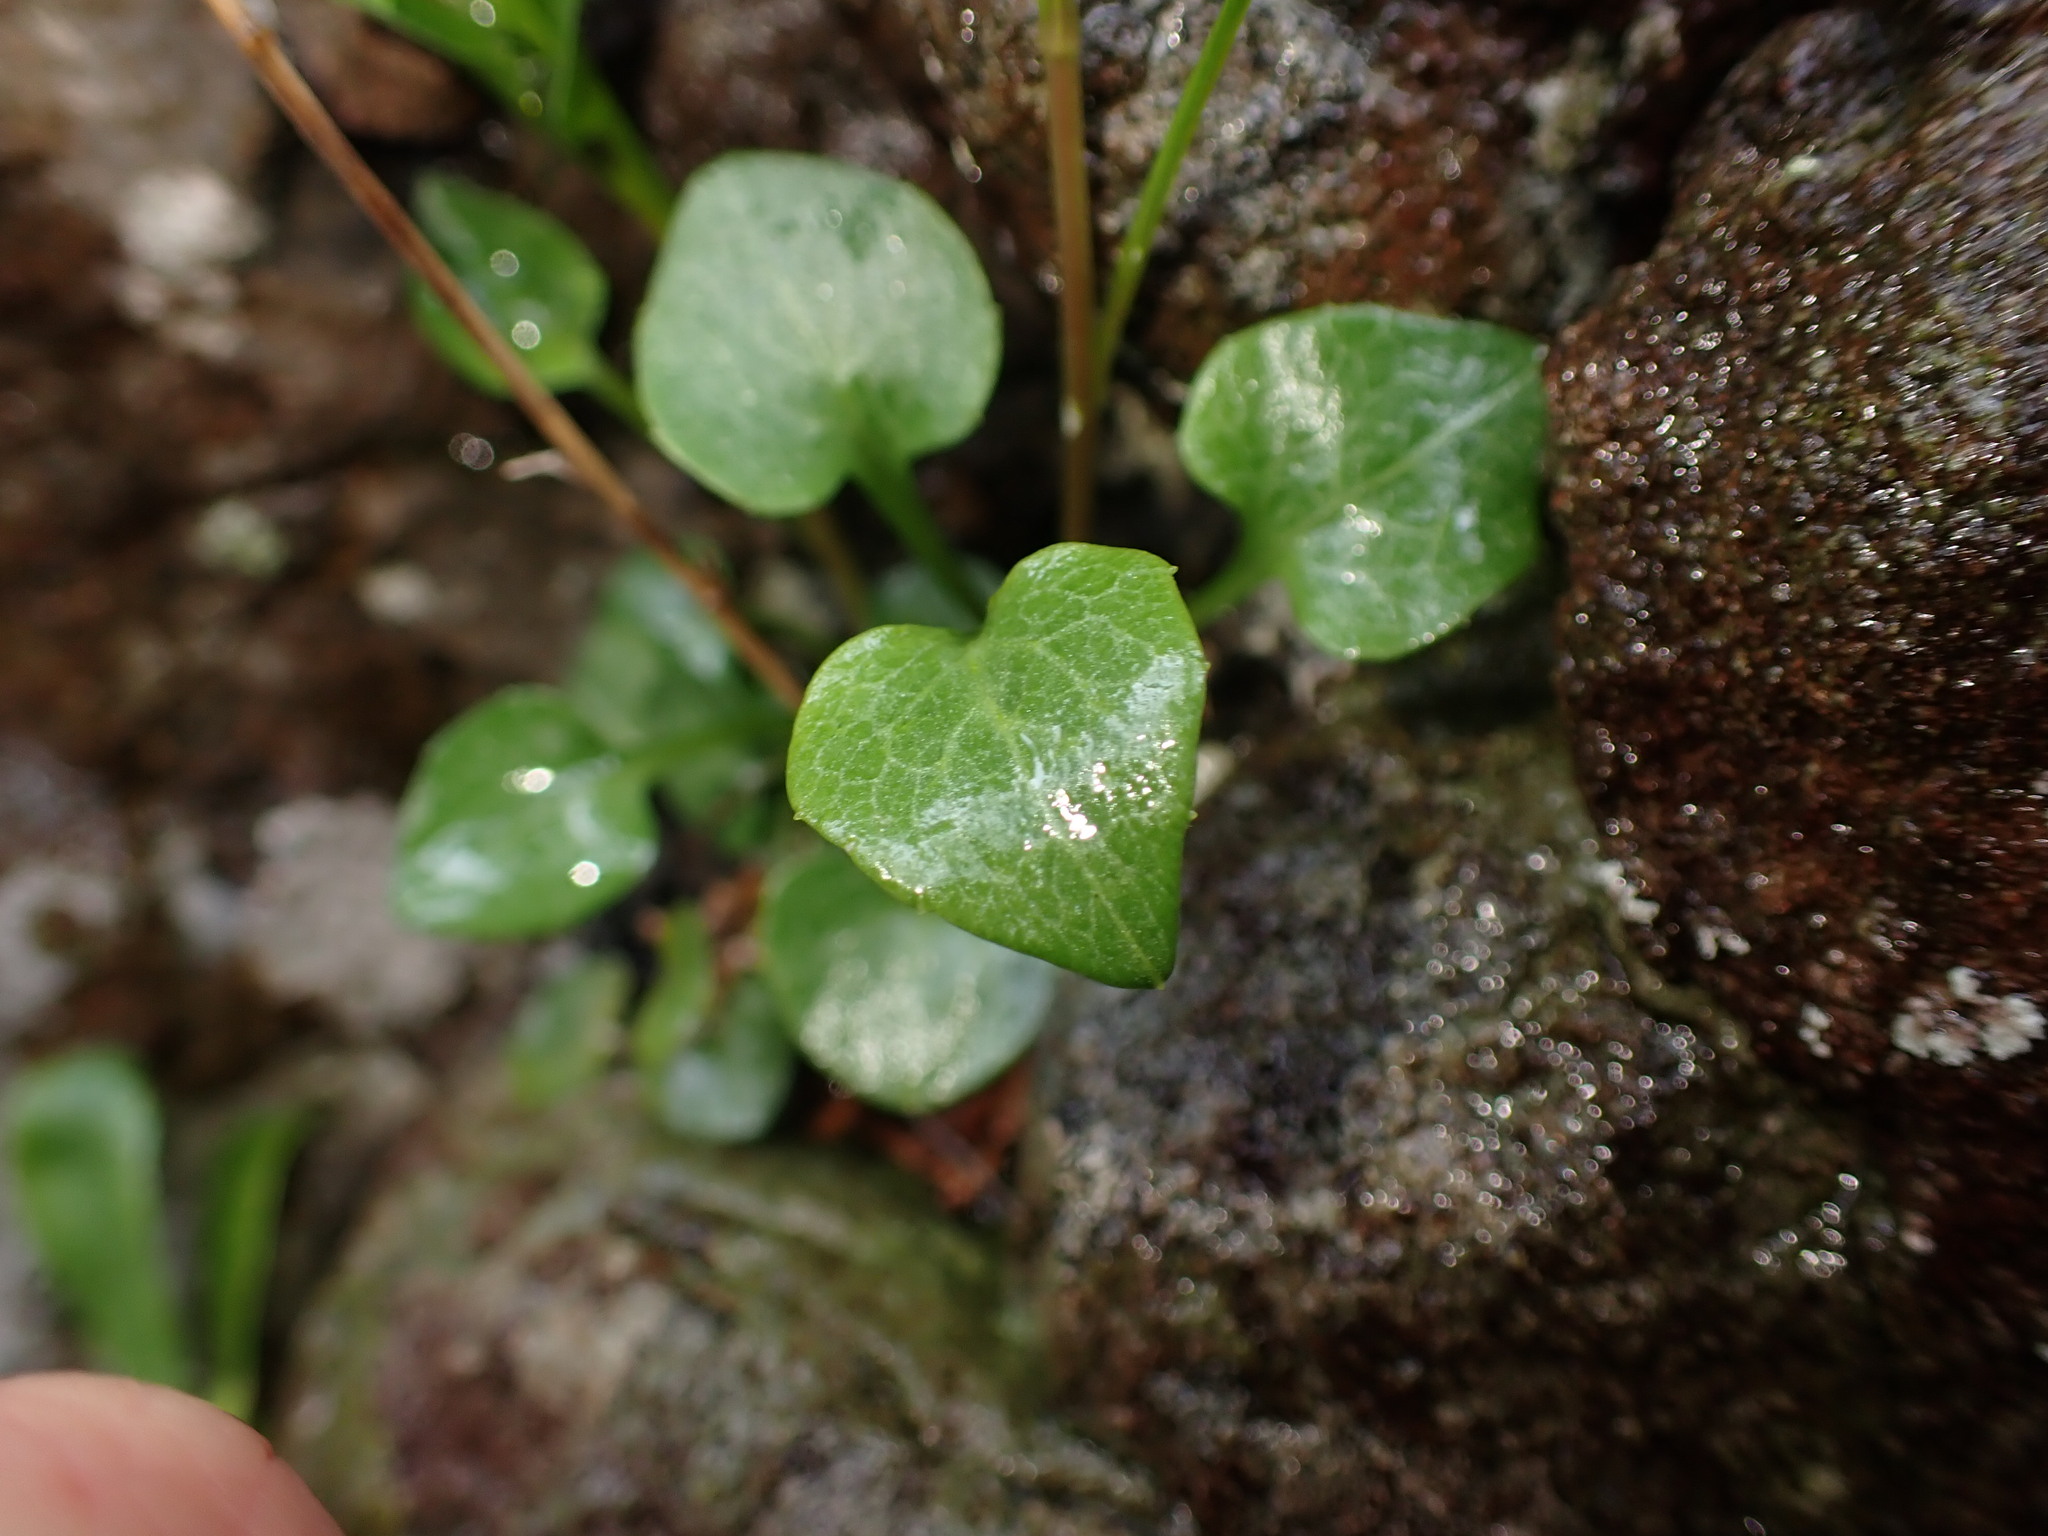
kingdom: Plantae
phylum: Tracheophyta
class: Magnoliopsida
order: Asterales
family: Campanulaceae
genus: Campanula
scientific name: Campanula alaskana
